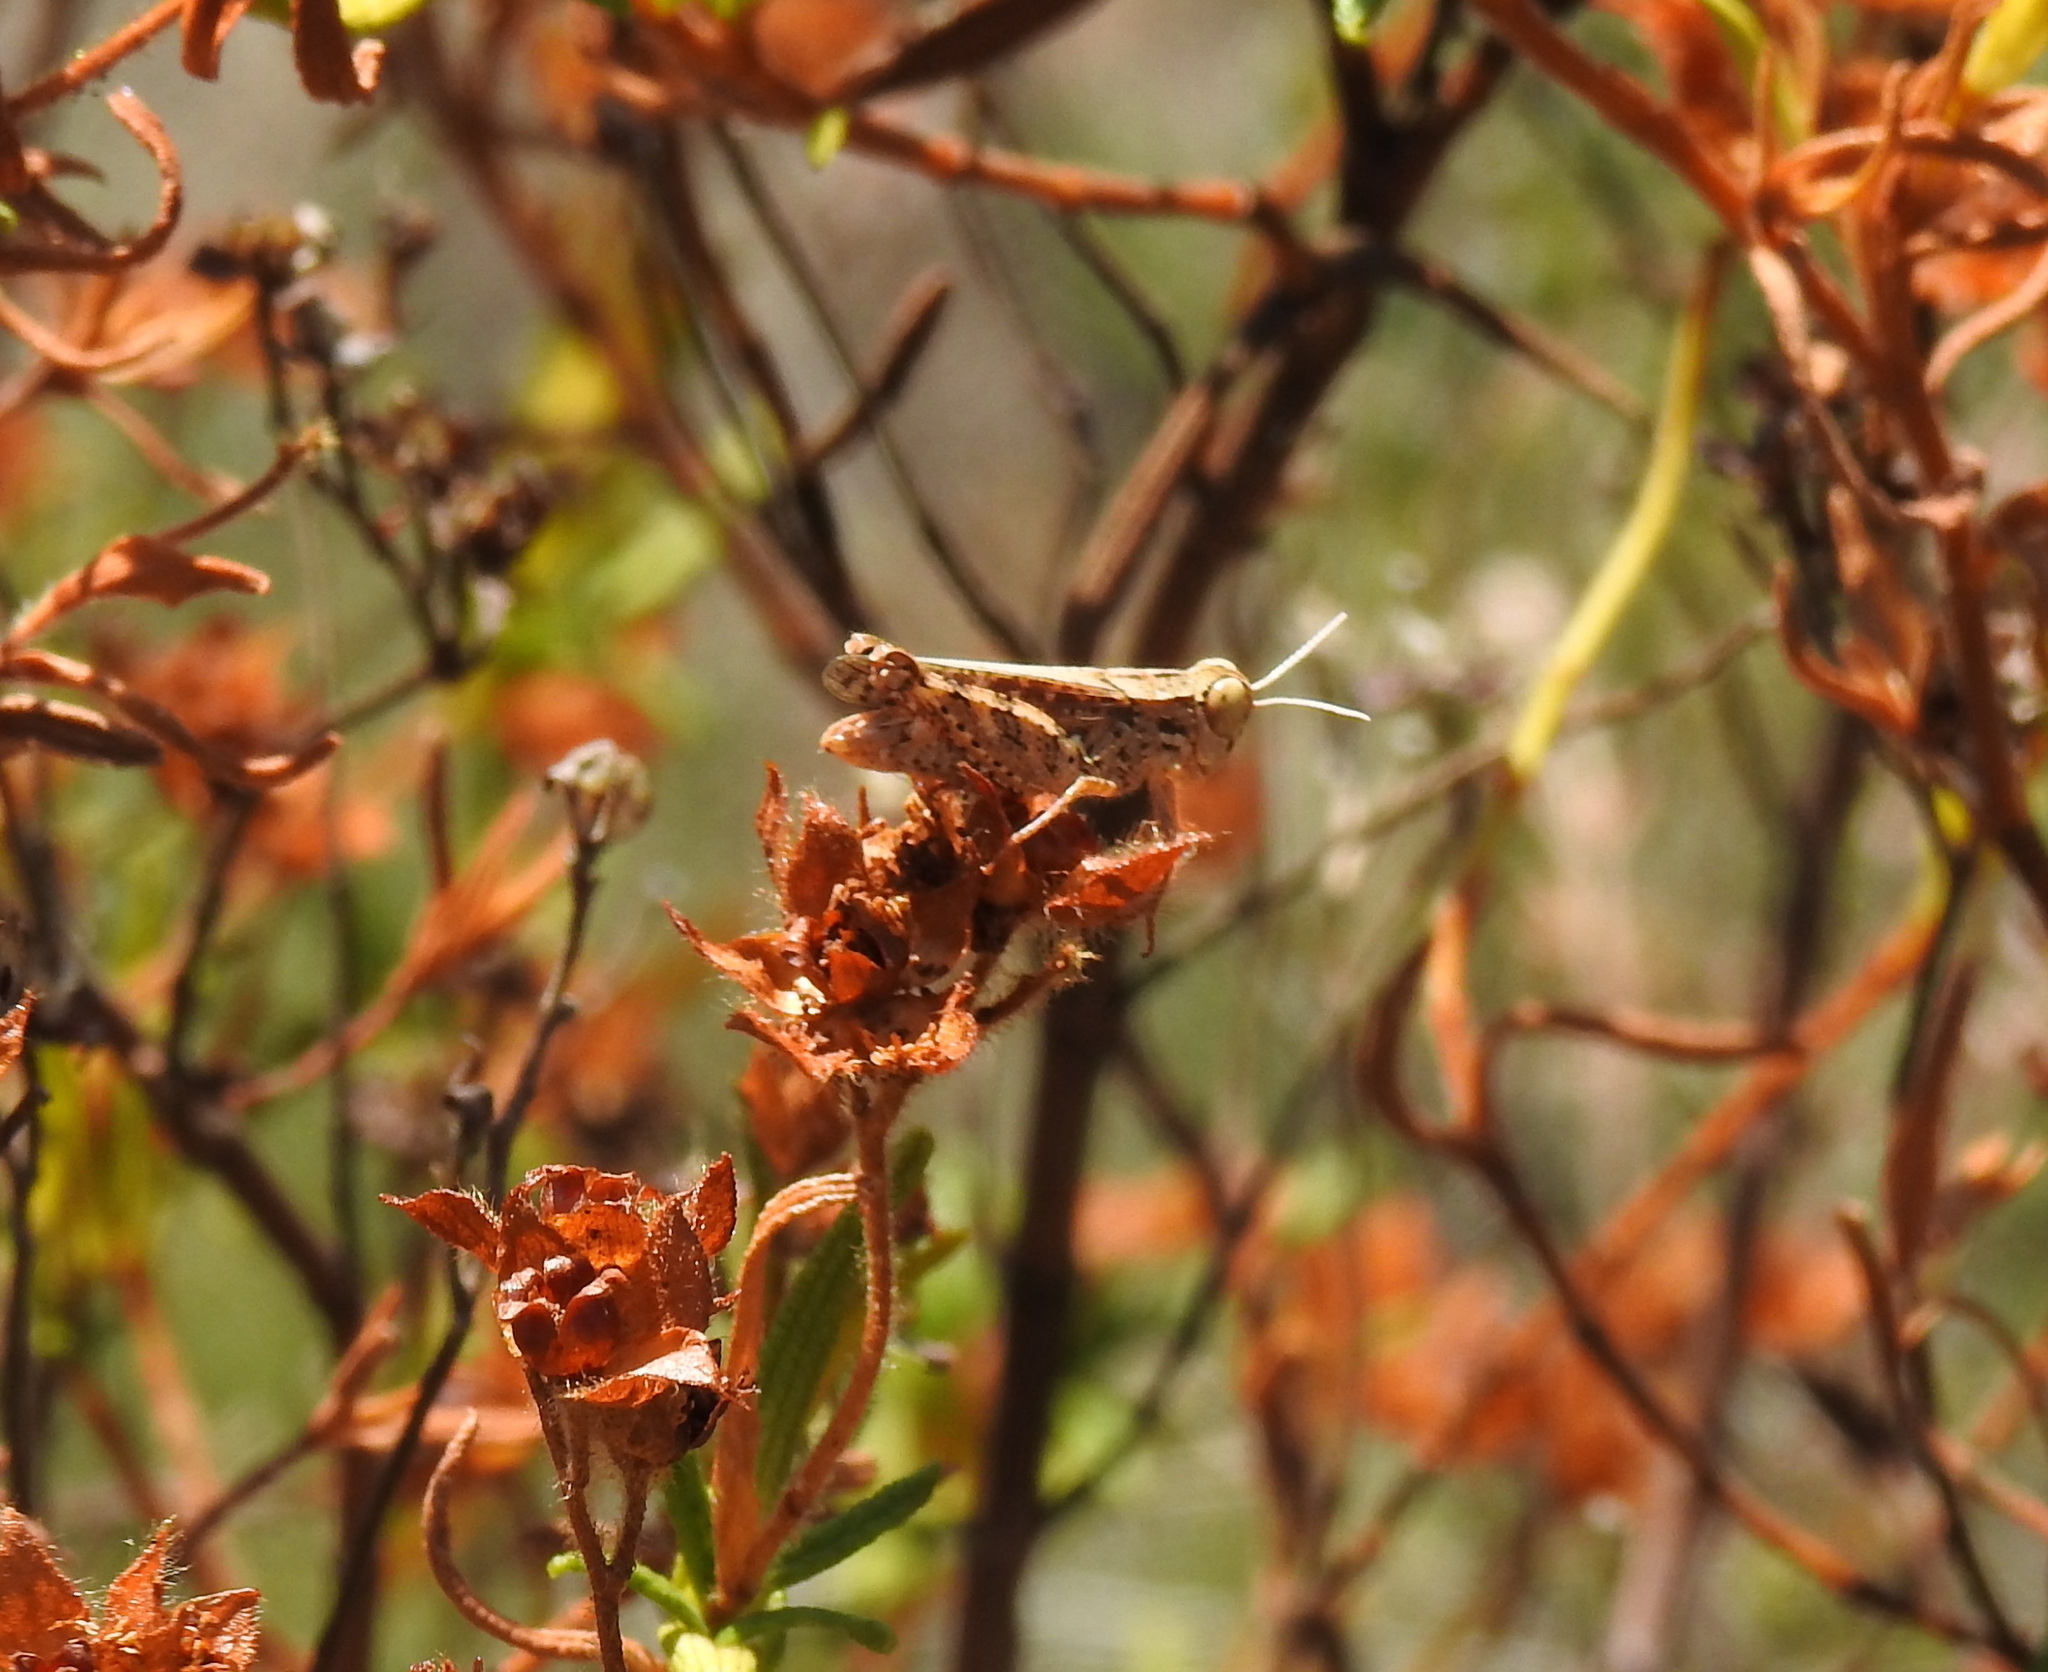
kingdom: Animalia
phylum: Arthropoda
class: Insecta
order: Orthoptera
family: Acrididae
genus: Calliptamus
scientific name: Calliptamus barbarus
